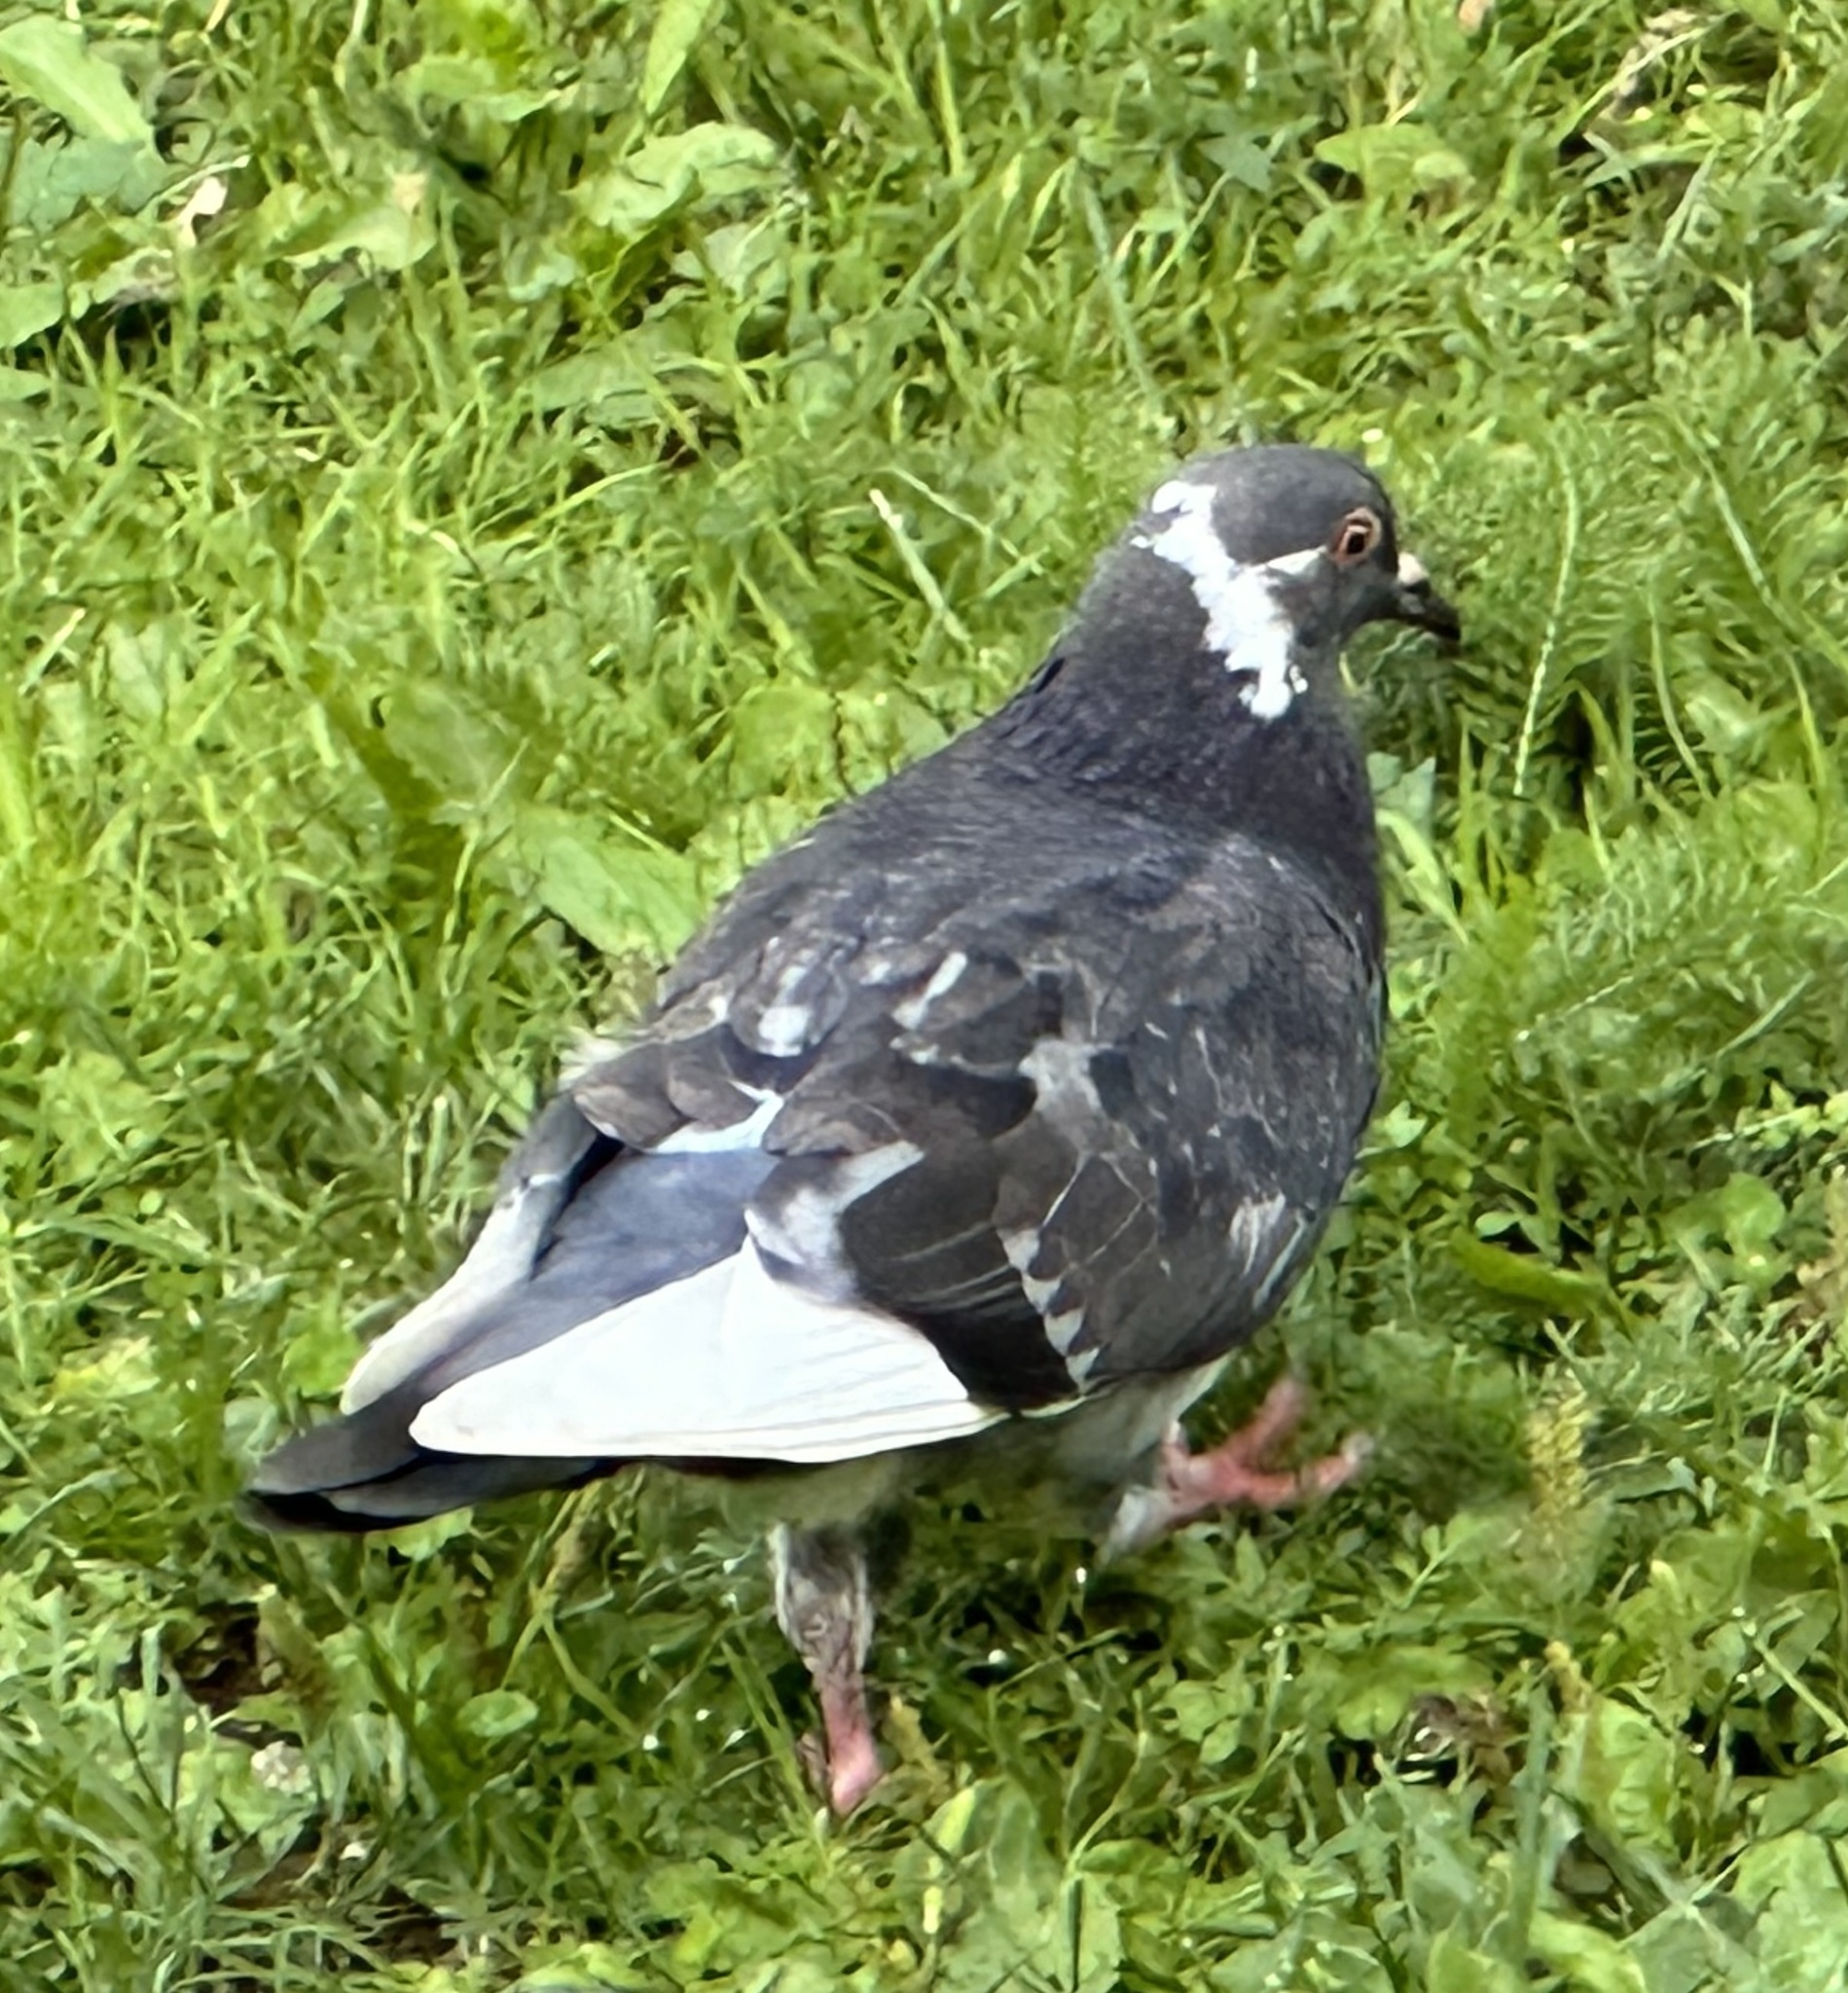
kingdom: Animalia
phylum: Chordata
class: Aves
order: Columbiformes
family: Columbidae
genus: Columba
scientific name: Columba livia
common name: Rock pigeon
